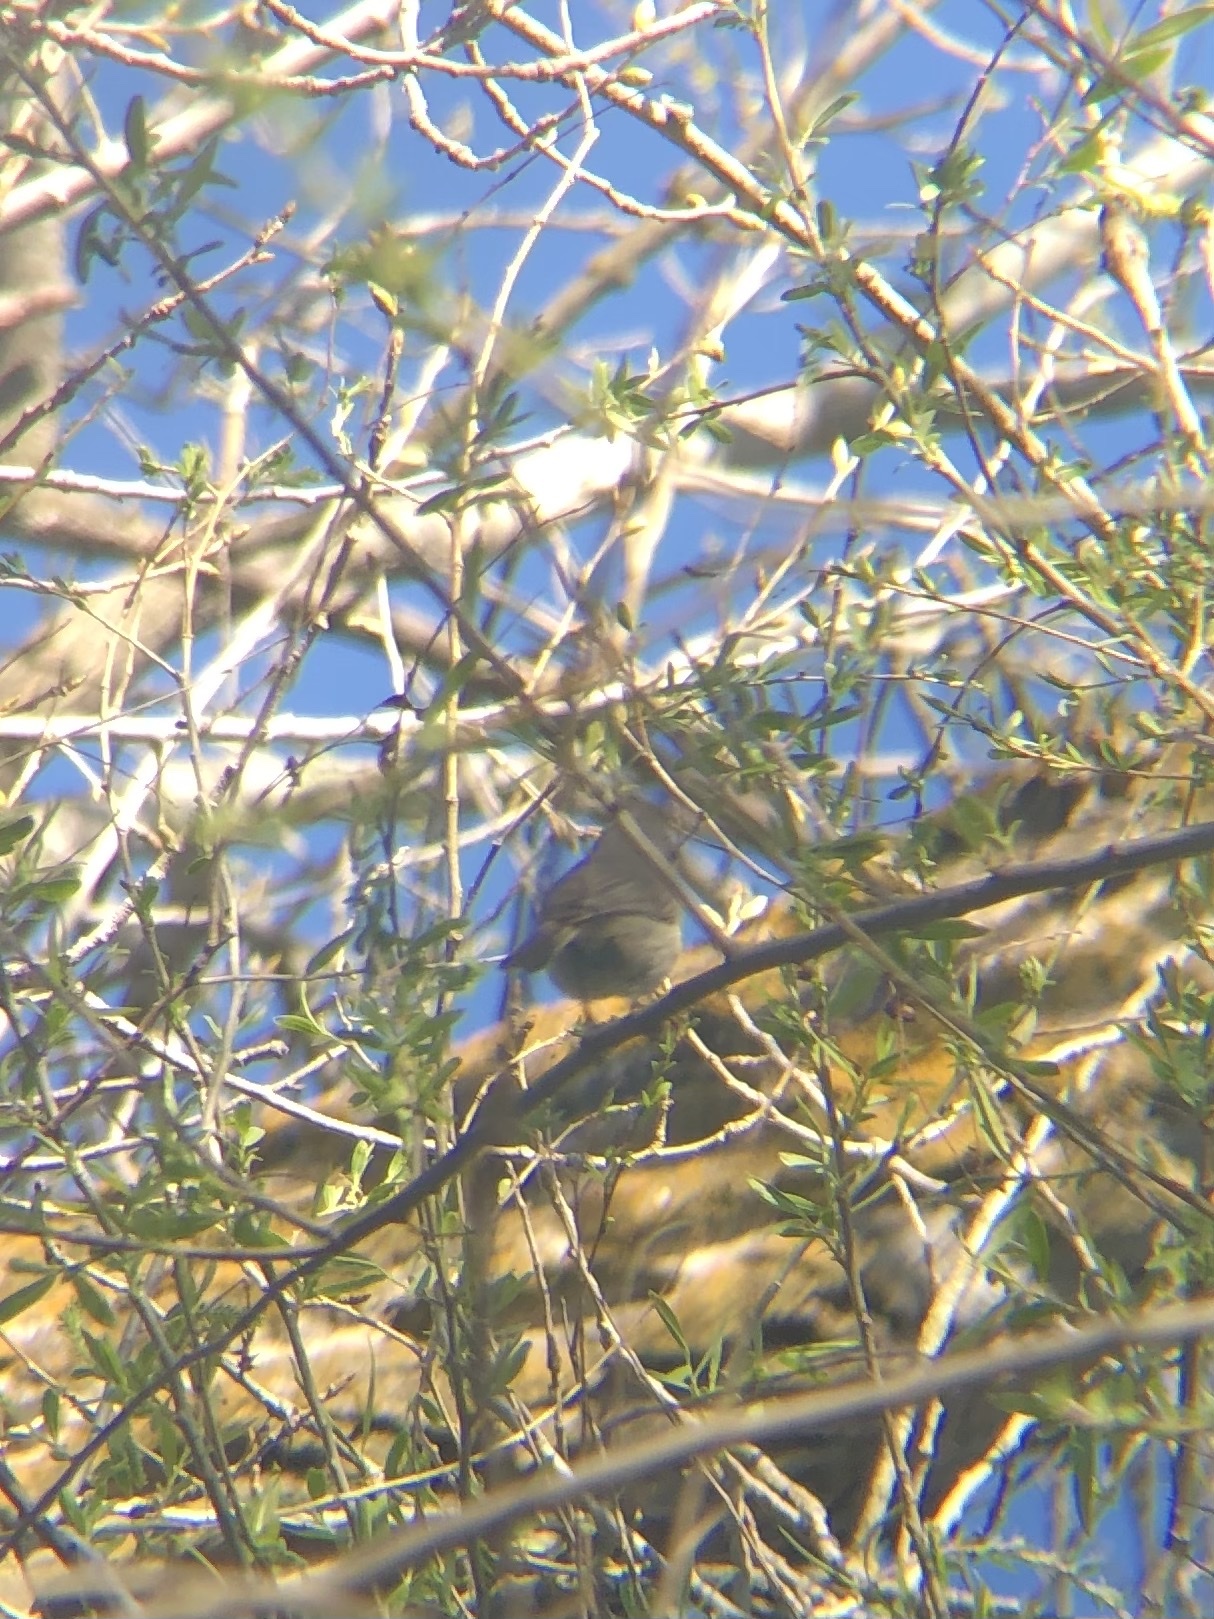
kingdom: Animalia
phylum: Chordata
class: Aves
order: Passeriformes
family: Paridae
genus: Baeolophus
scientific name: Baeolophus inornatus
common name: Oak titmouse
